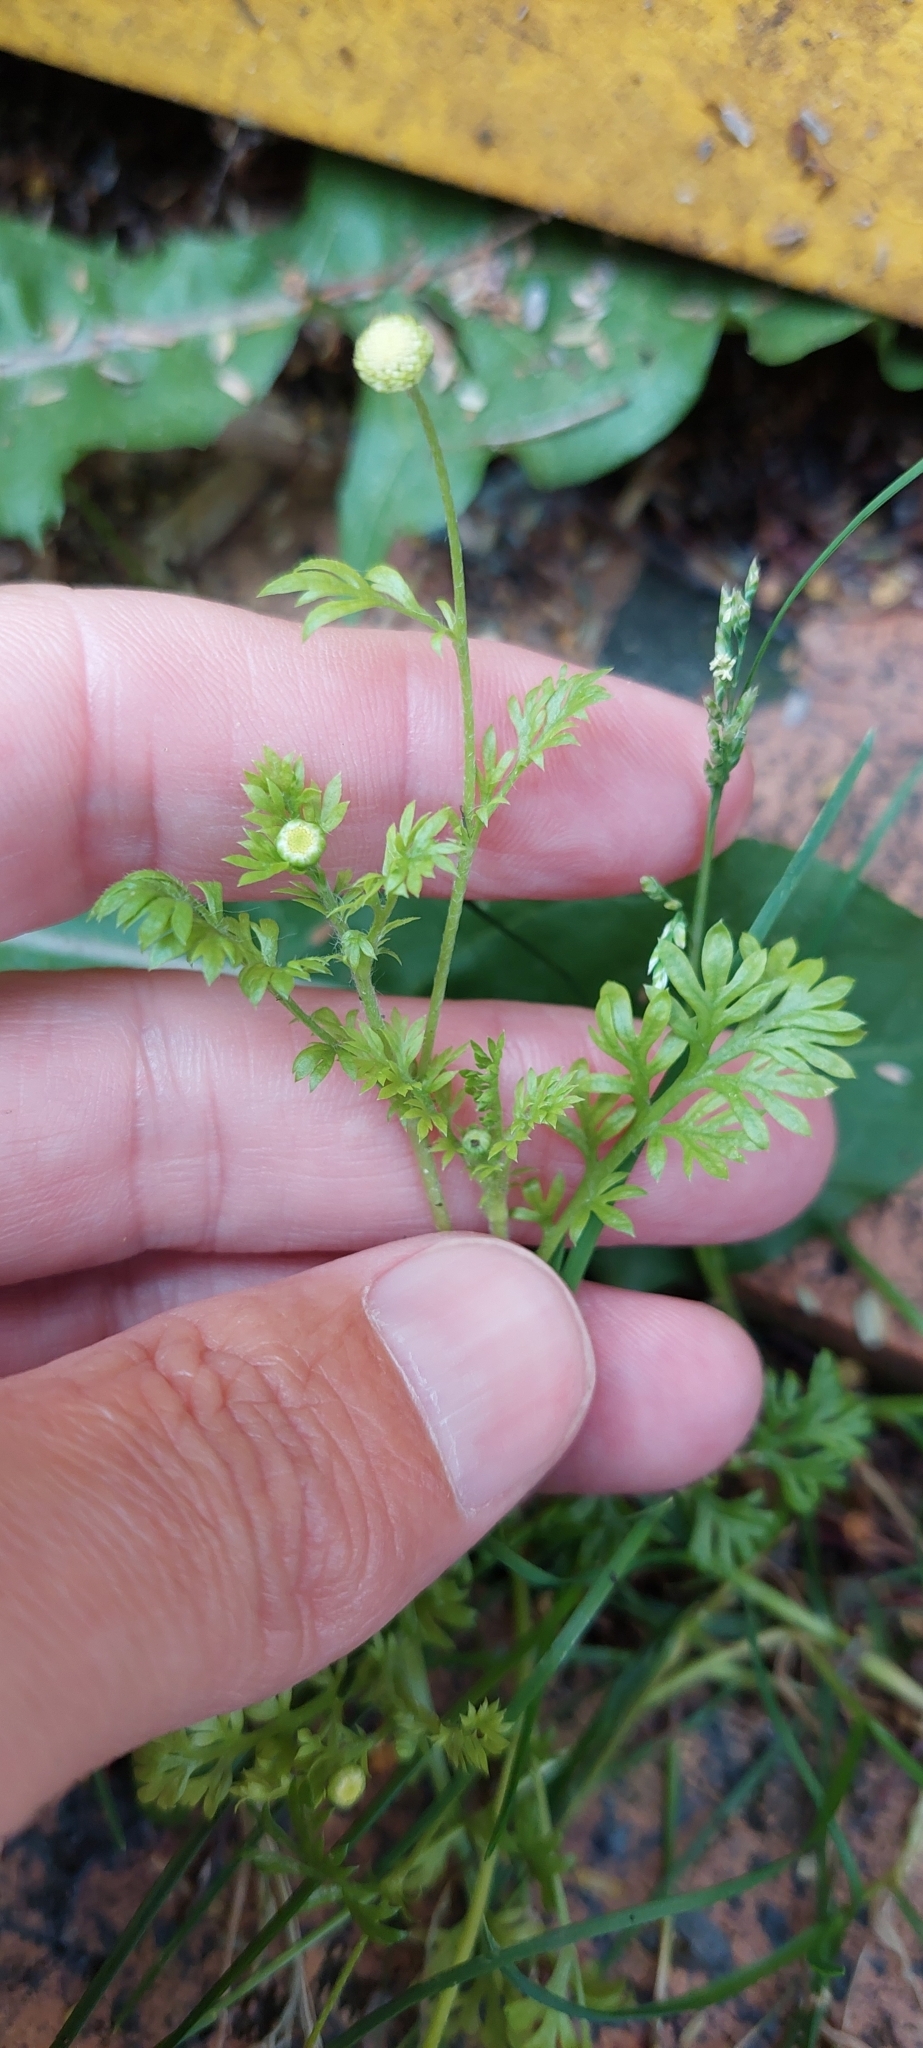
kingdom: Plantae
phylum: Tracheophyta
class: Magnoliopsida
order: Asterales
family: Asteraceae
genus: Cotula
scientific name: Cotula australis
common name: Australian waterbuttons
